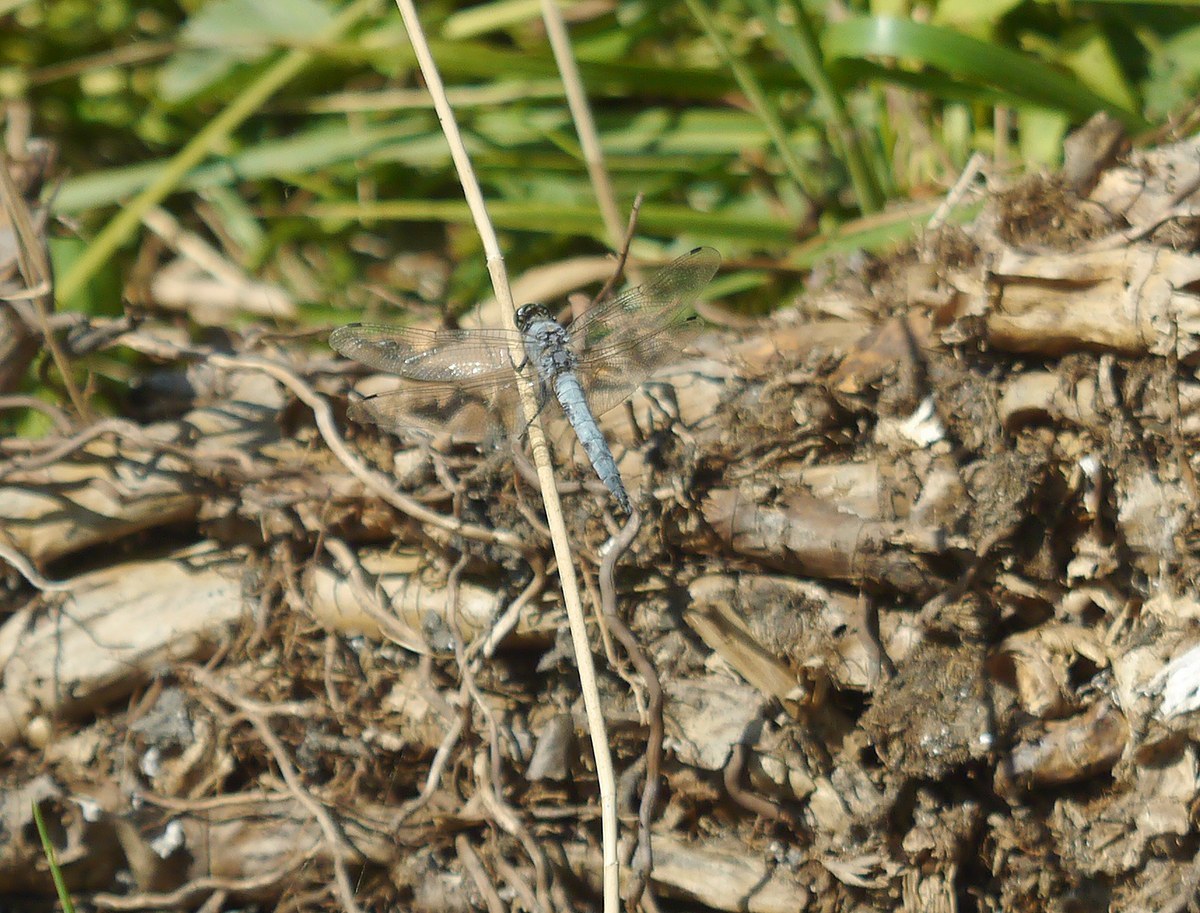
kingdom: Animalia
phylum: Arthropoda
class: Insecta
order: Odonata
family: Libellulidae
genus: Orthetrum
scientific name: Orthetrum cancellatum
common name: Black-tailed skimmer
